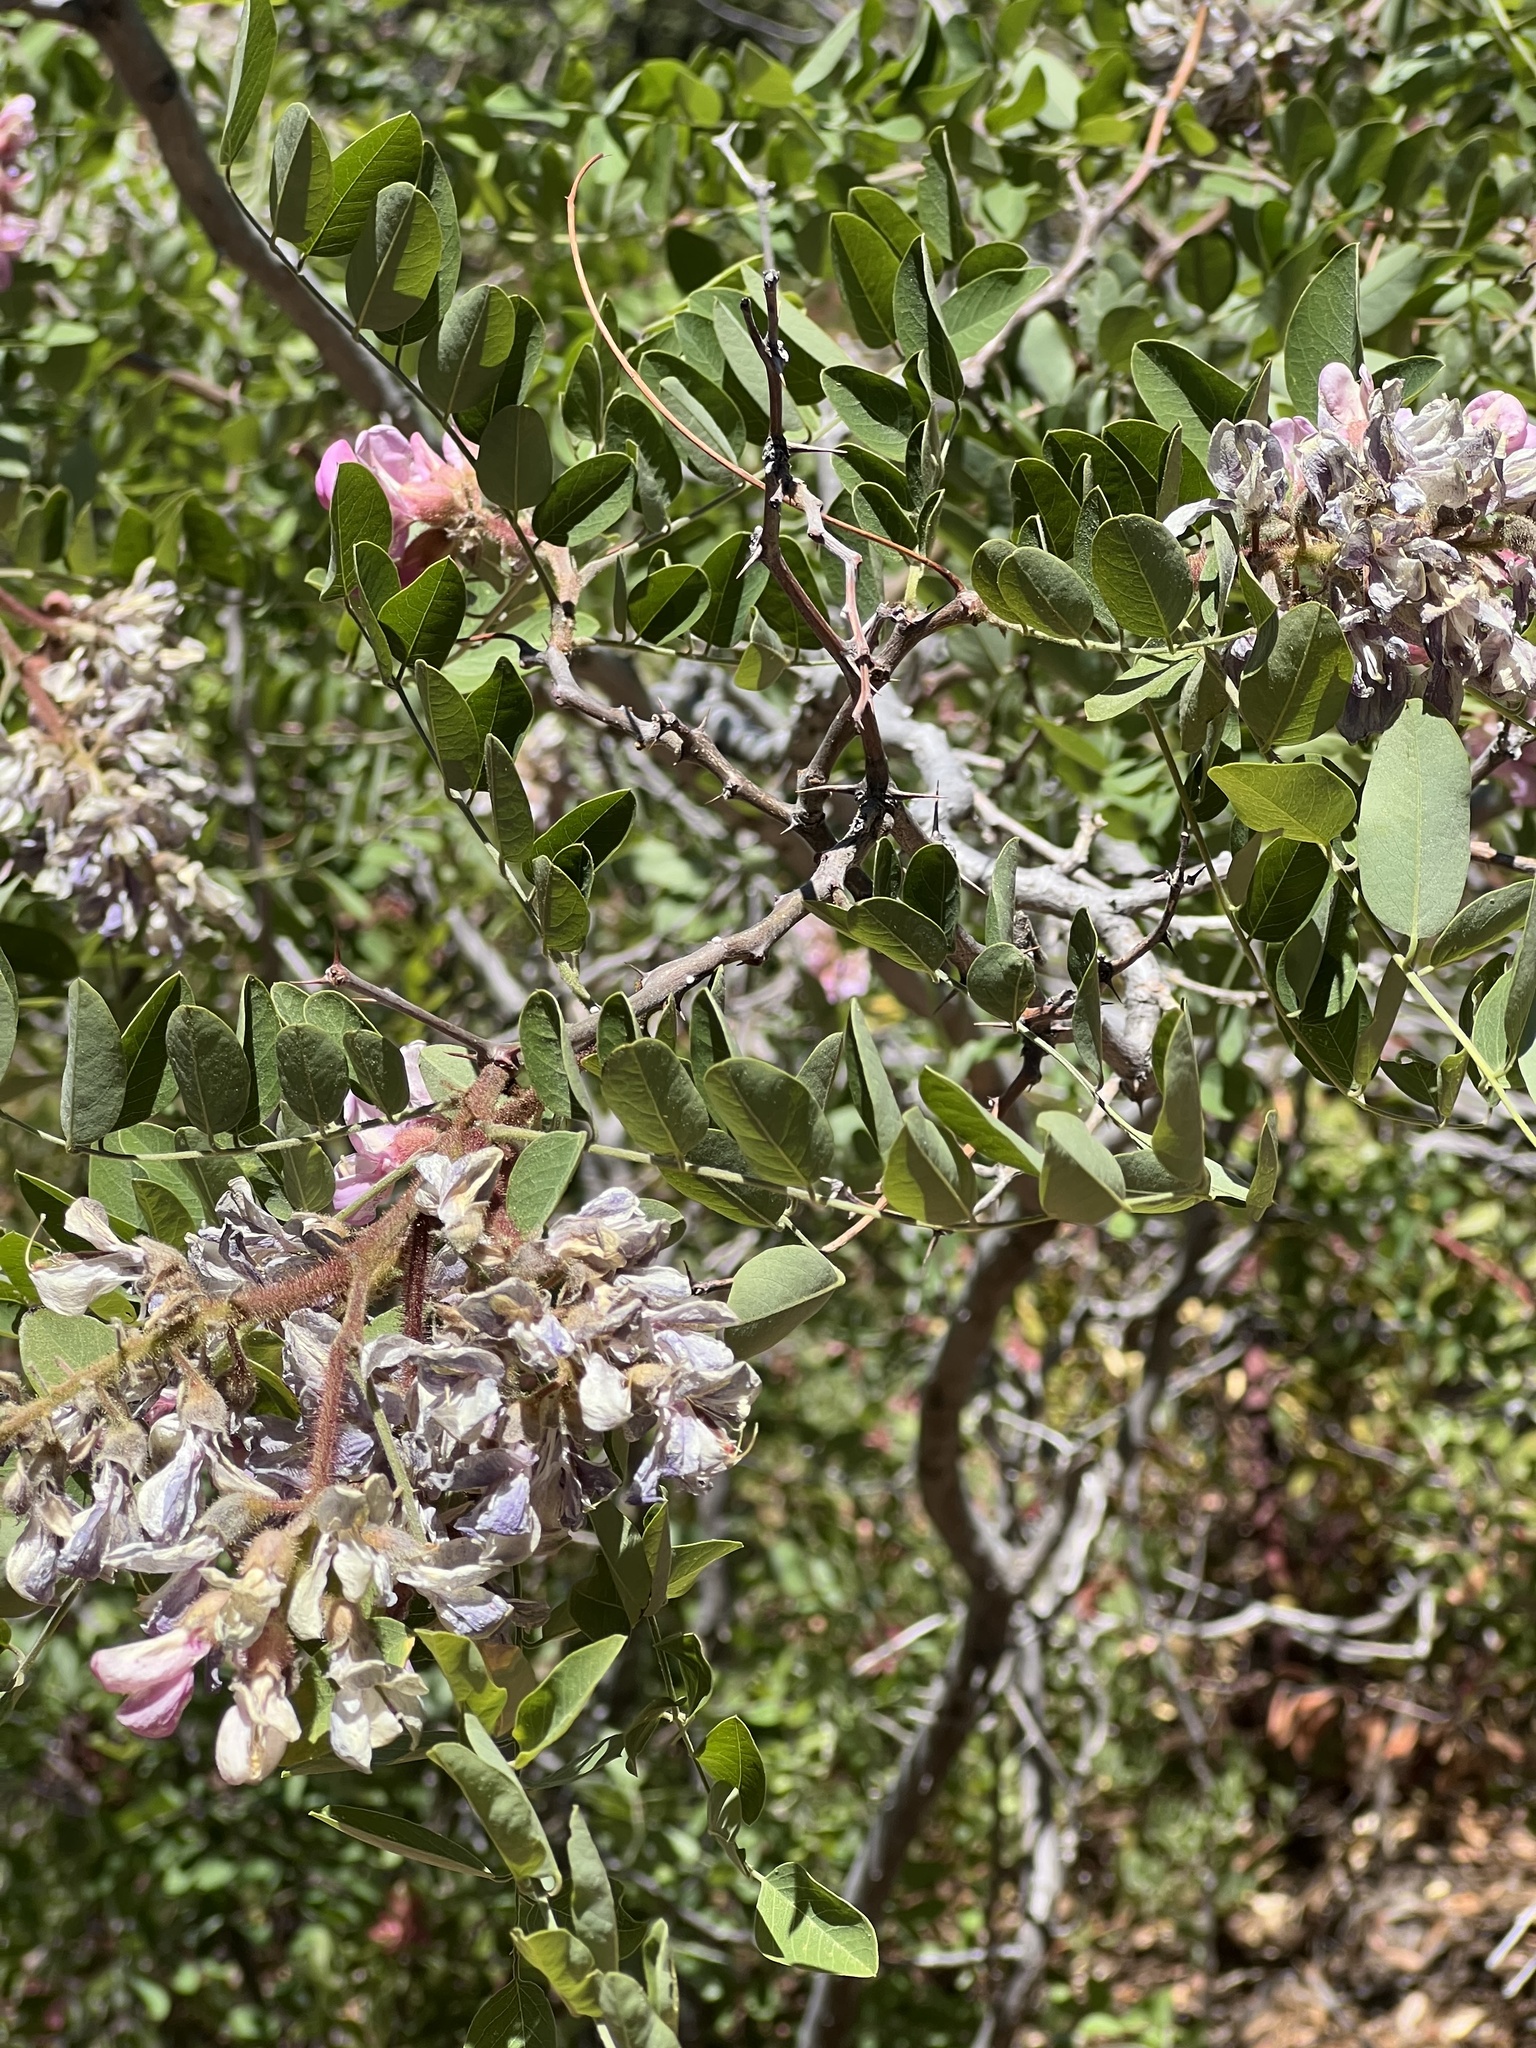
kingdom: Plantae
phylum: Tracheophyta
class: Magnoliopsida
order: Fabales
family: Fabaceae
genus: Robinia
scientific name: Robinia neomexicana
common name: New mexico locust
